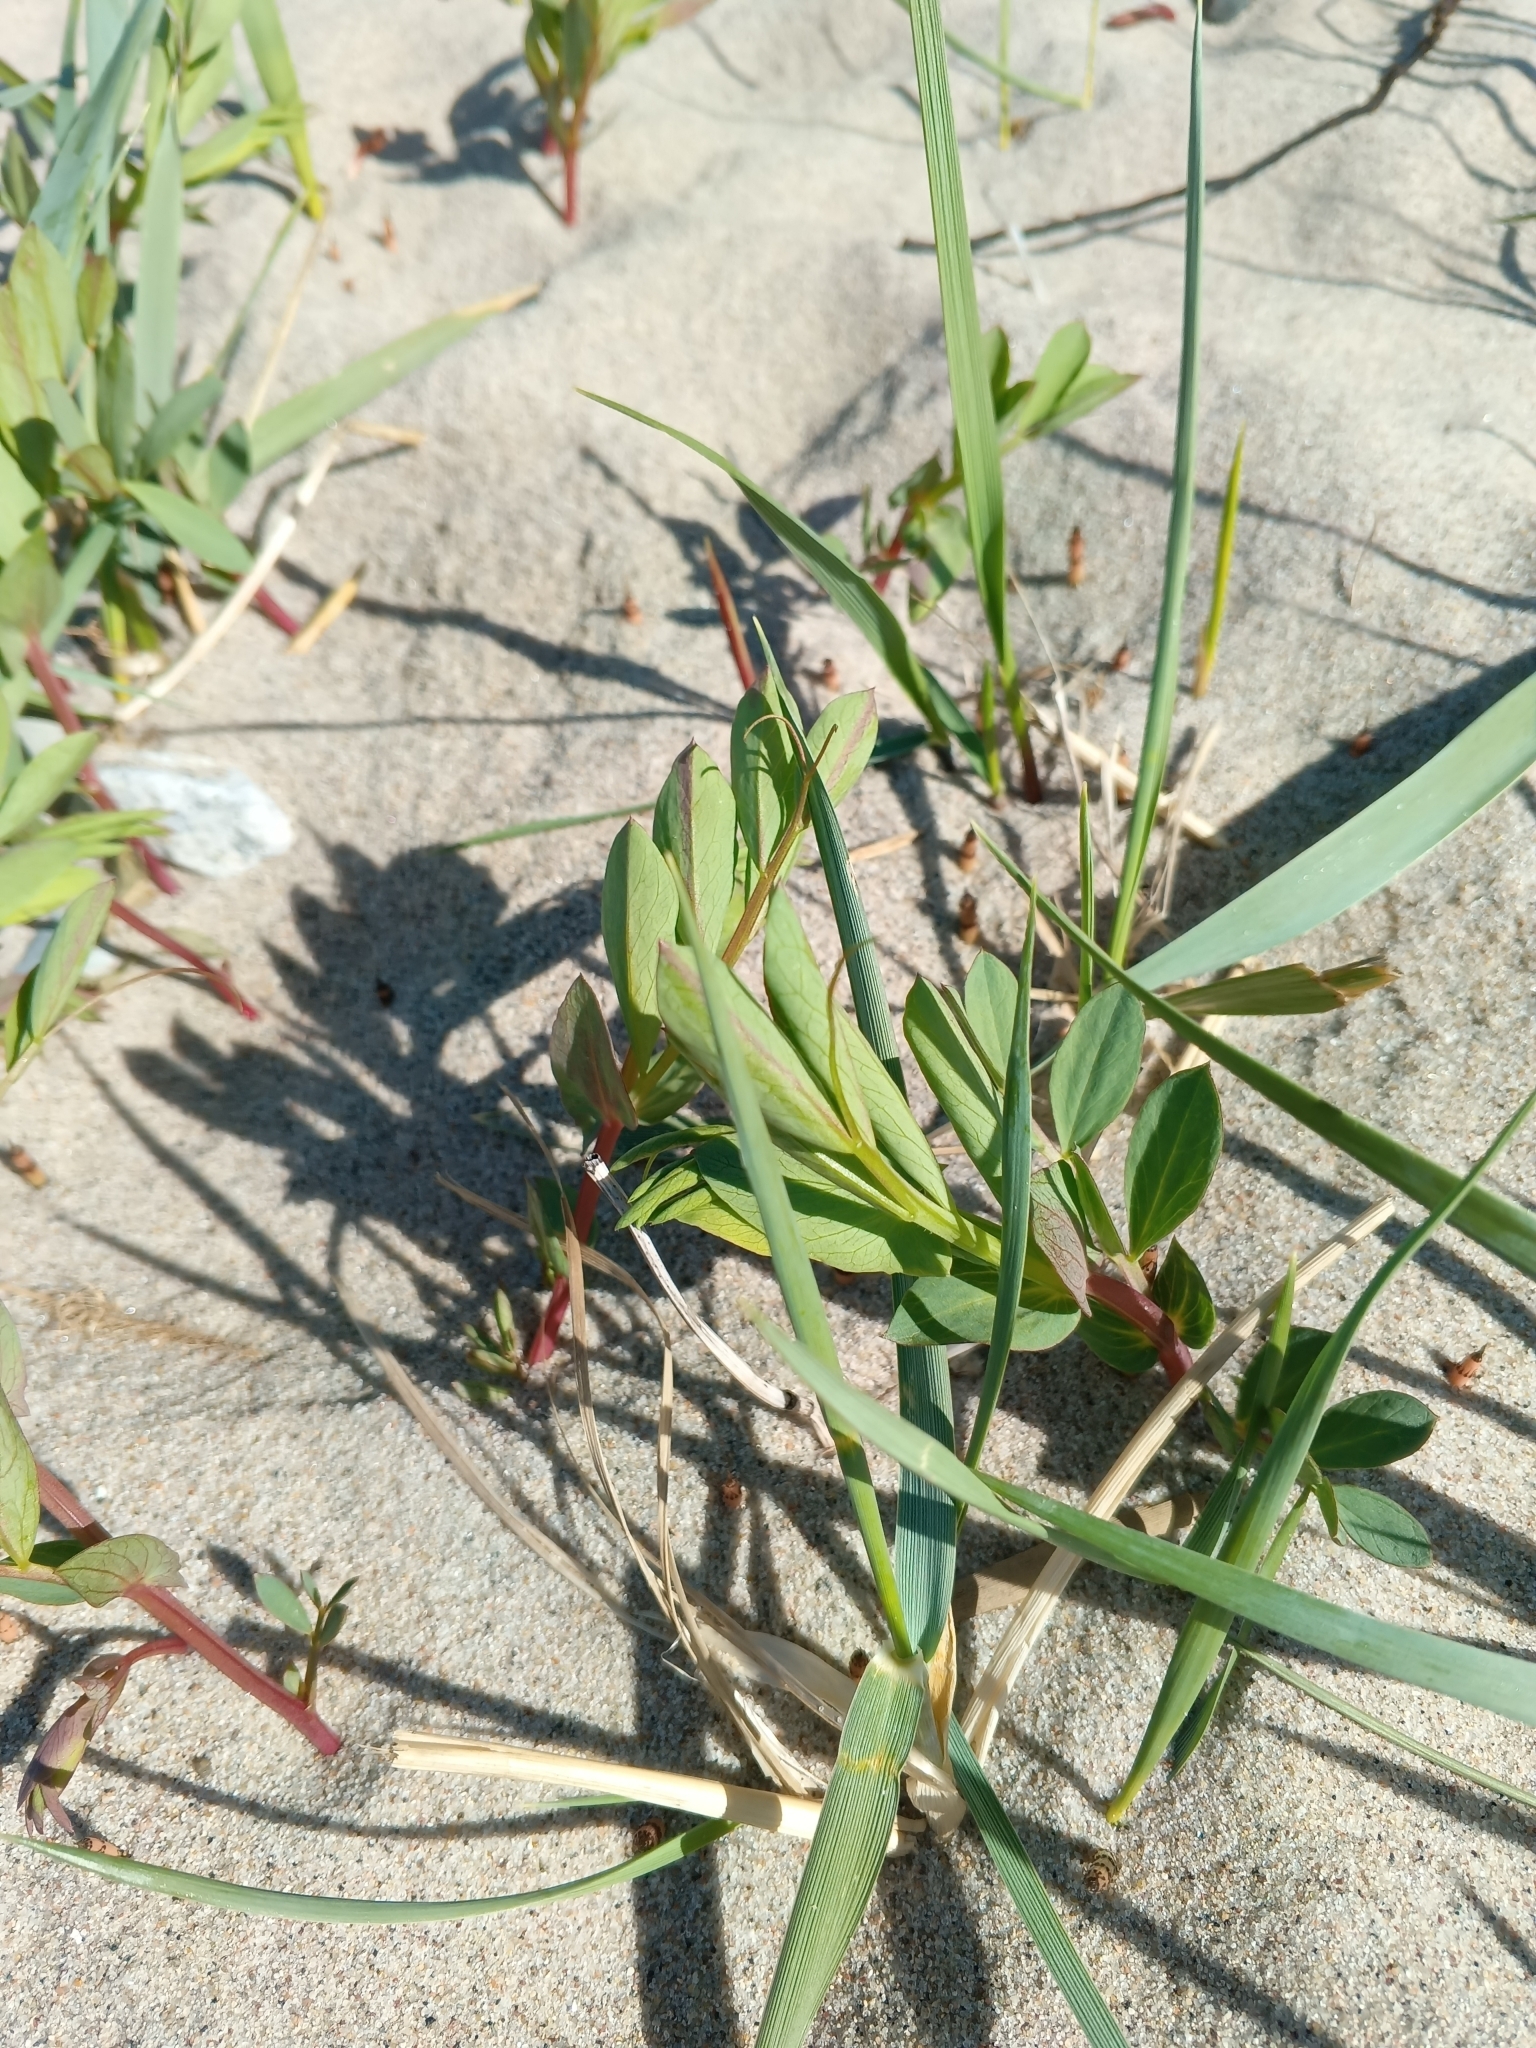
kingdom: Plantae
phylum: Tracheophyta
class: Magnoliopsida
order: Fabales
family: Fabaceae
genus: Lathyrus
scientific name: Lathyrus japonicus
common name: Sea pea
